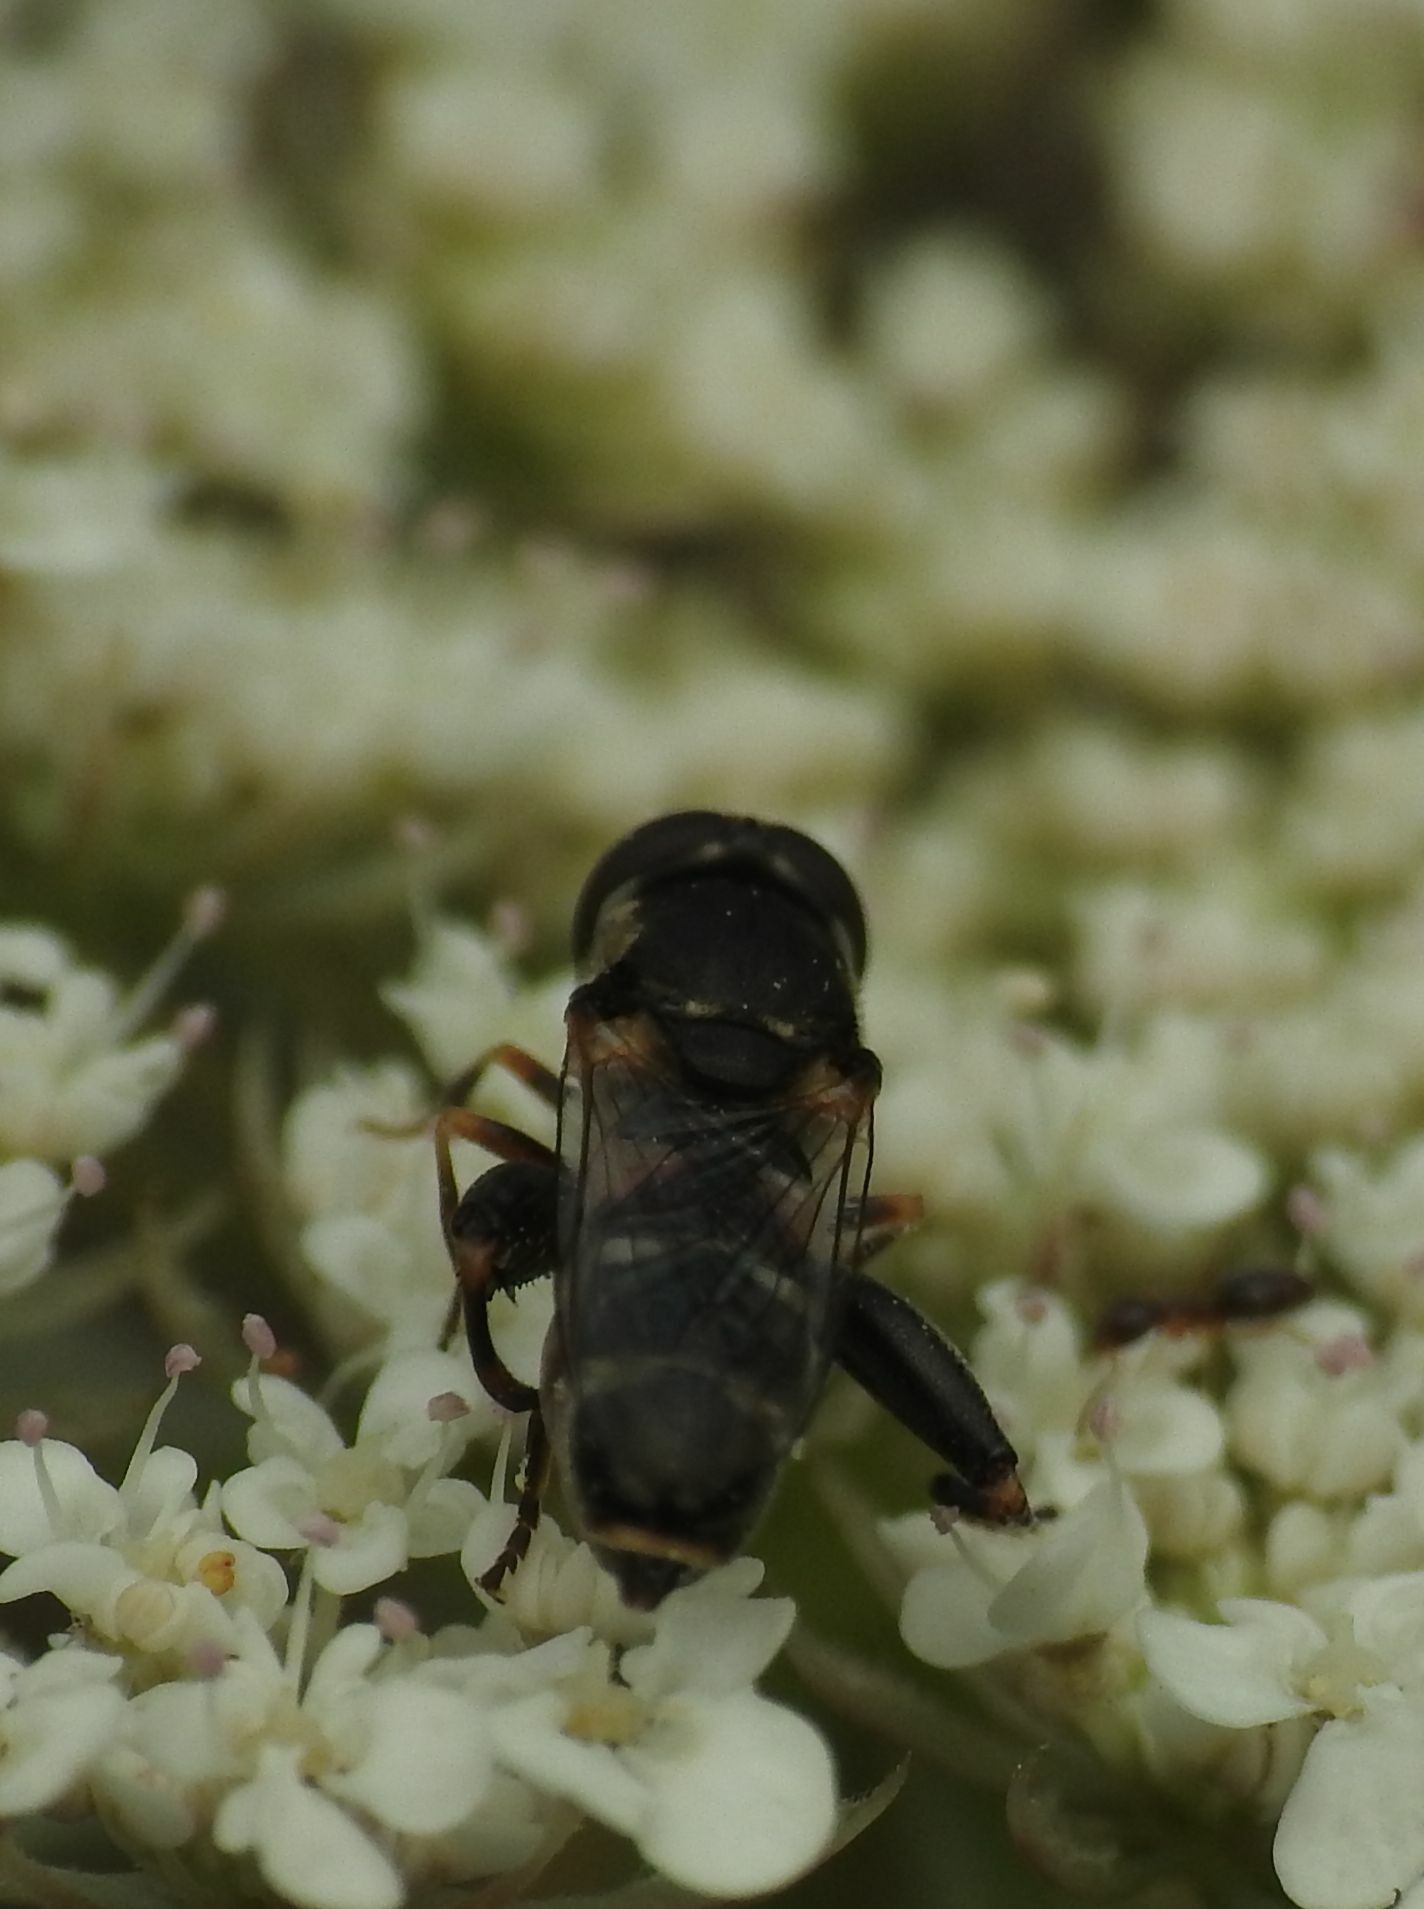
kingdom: Animalia
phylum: Arthropoda
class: Insecta
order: Diptera
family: Syrphidae
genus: Syritta
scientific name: Syritta pipiens
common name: Hover fly
